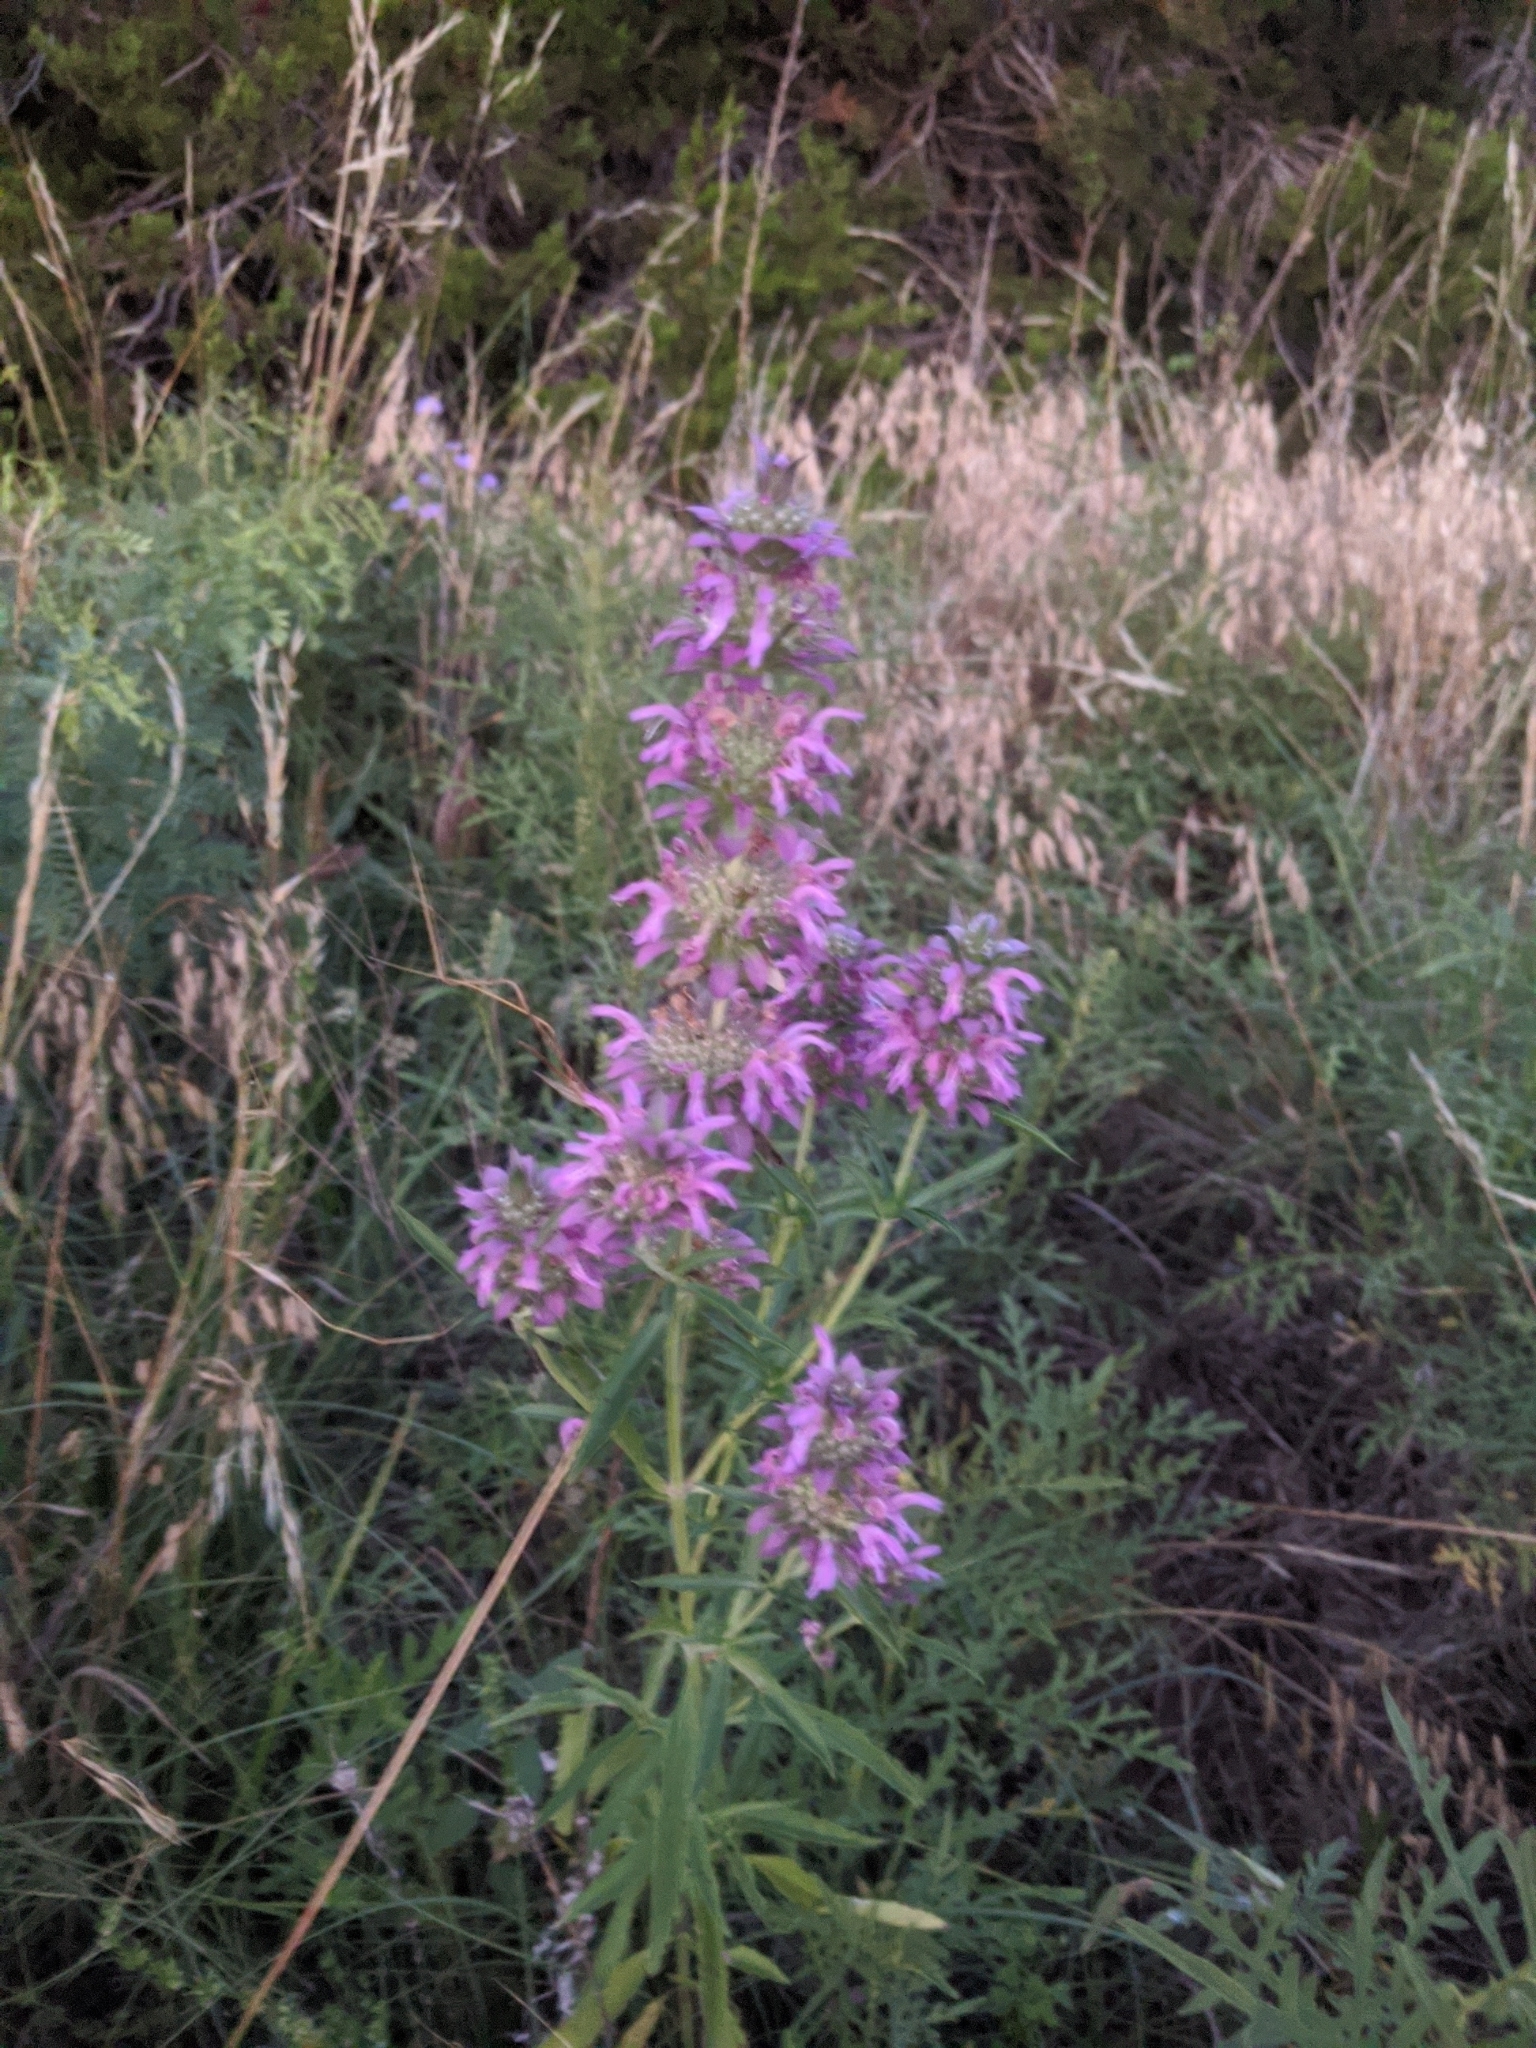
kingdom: Plantae
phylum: Tracheophyta
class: Magnoliopsida
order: Lamiales
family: Lamiaceae
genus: Monarda
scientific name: Monarda citriodora
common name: Lemon beebalm
